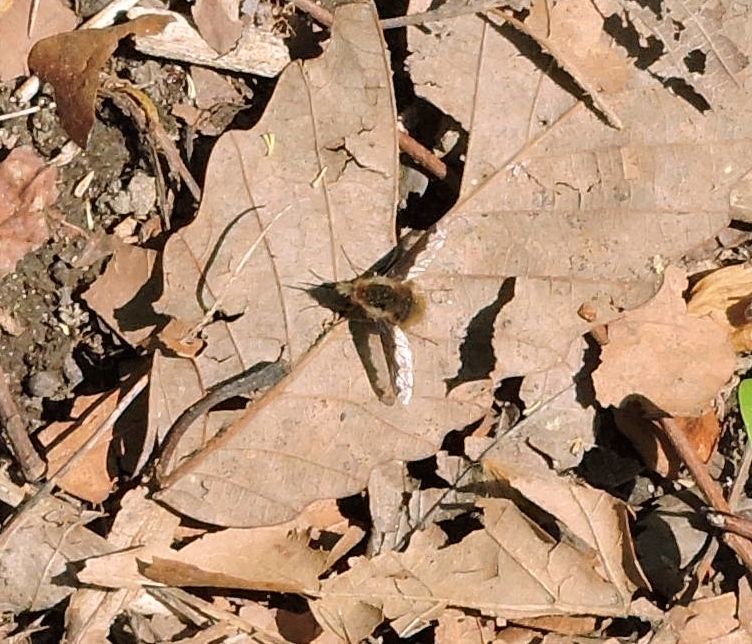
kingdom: Animalia
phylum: Arthropoda
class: Insecta
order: Diptera
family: Bombyliidae
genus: Bombylius
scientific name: Bombylius major
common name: Bee fly
